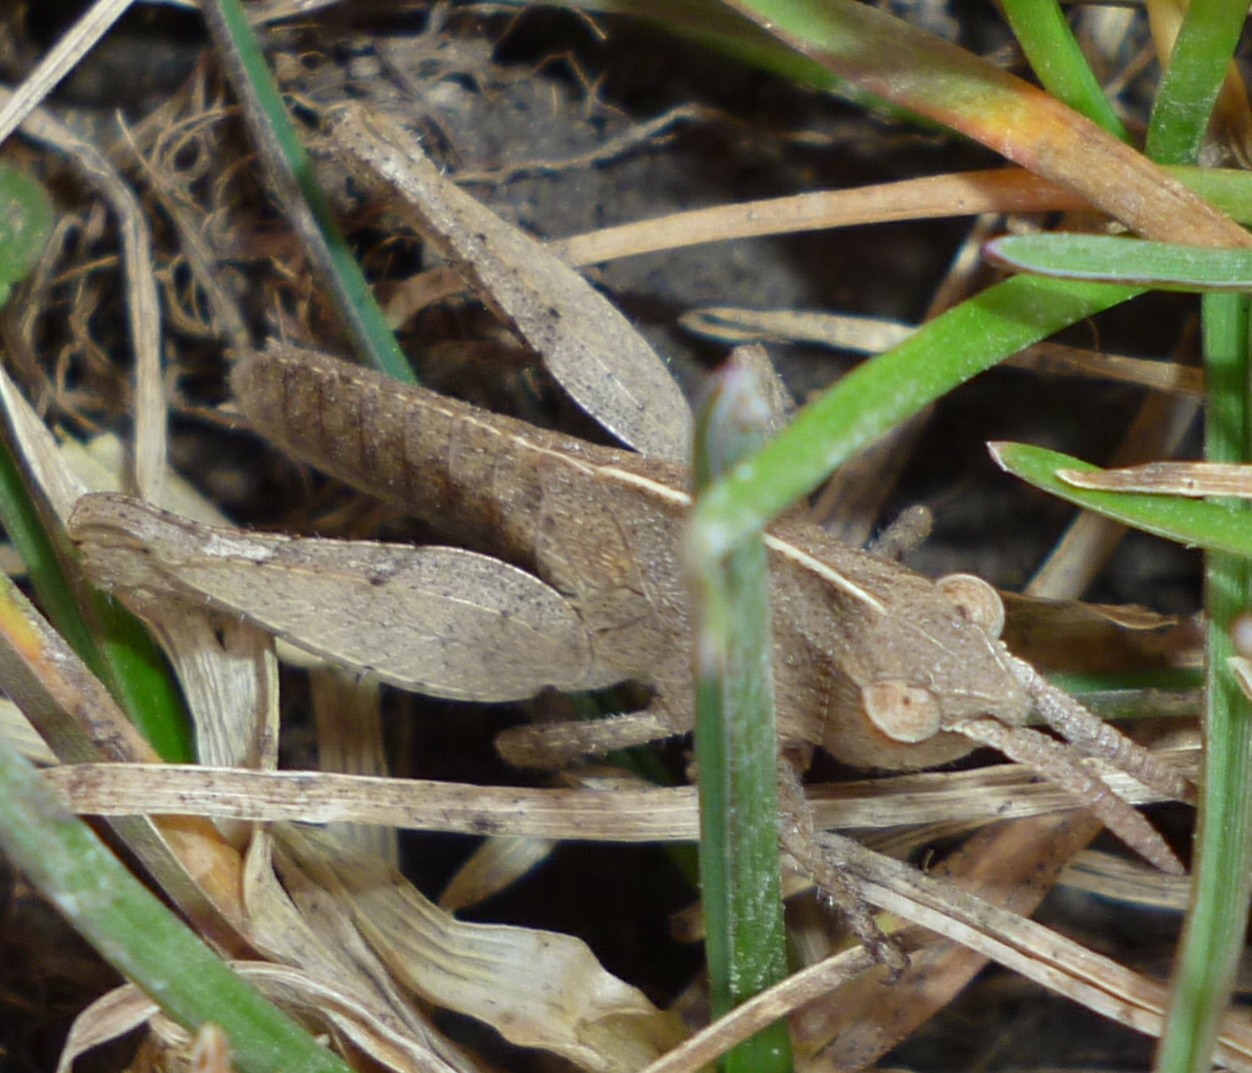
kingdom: Animalia
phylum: Arthropoda
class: Insecta
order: Orthoptera
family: Acrididae
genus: Chortophaga
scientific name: Chortophaga viridifasciata
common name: Green-striped grasshopper
